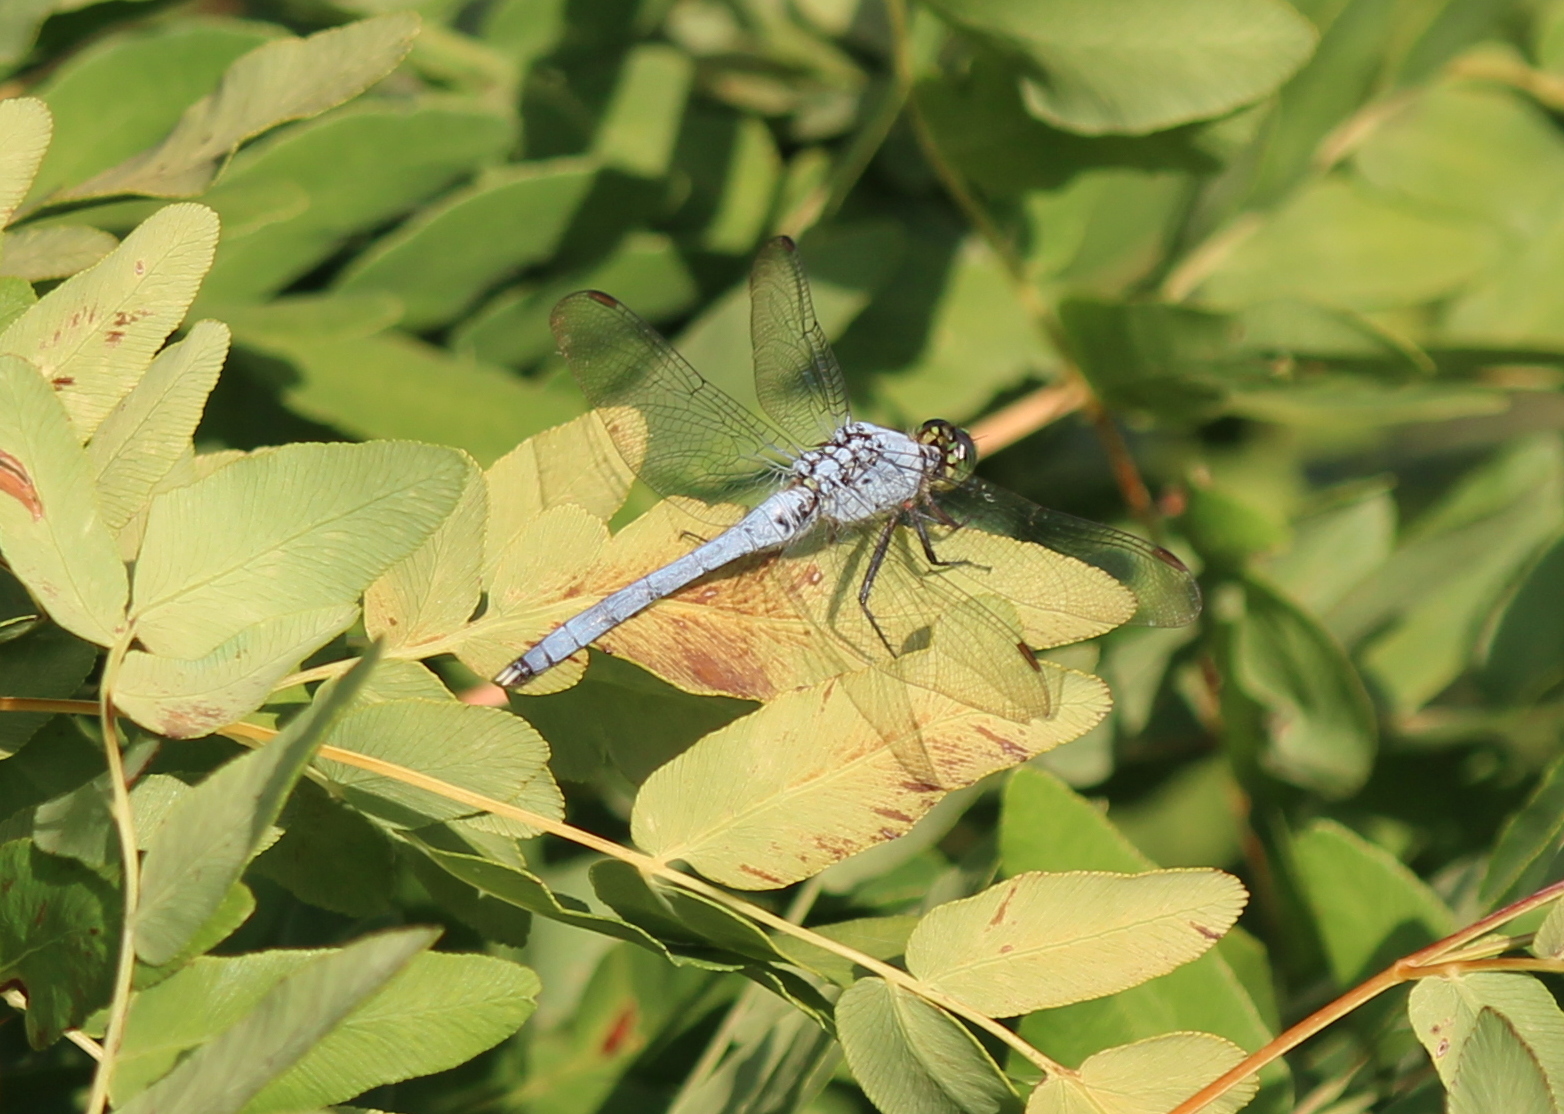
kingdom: Animalia
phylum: Arthropoda
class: Insecta
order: Odonata
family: Libellulidae
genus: Erythemis
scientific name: Erythemis simplicicollis
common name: Eastern pondhawk
